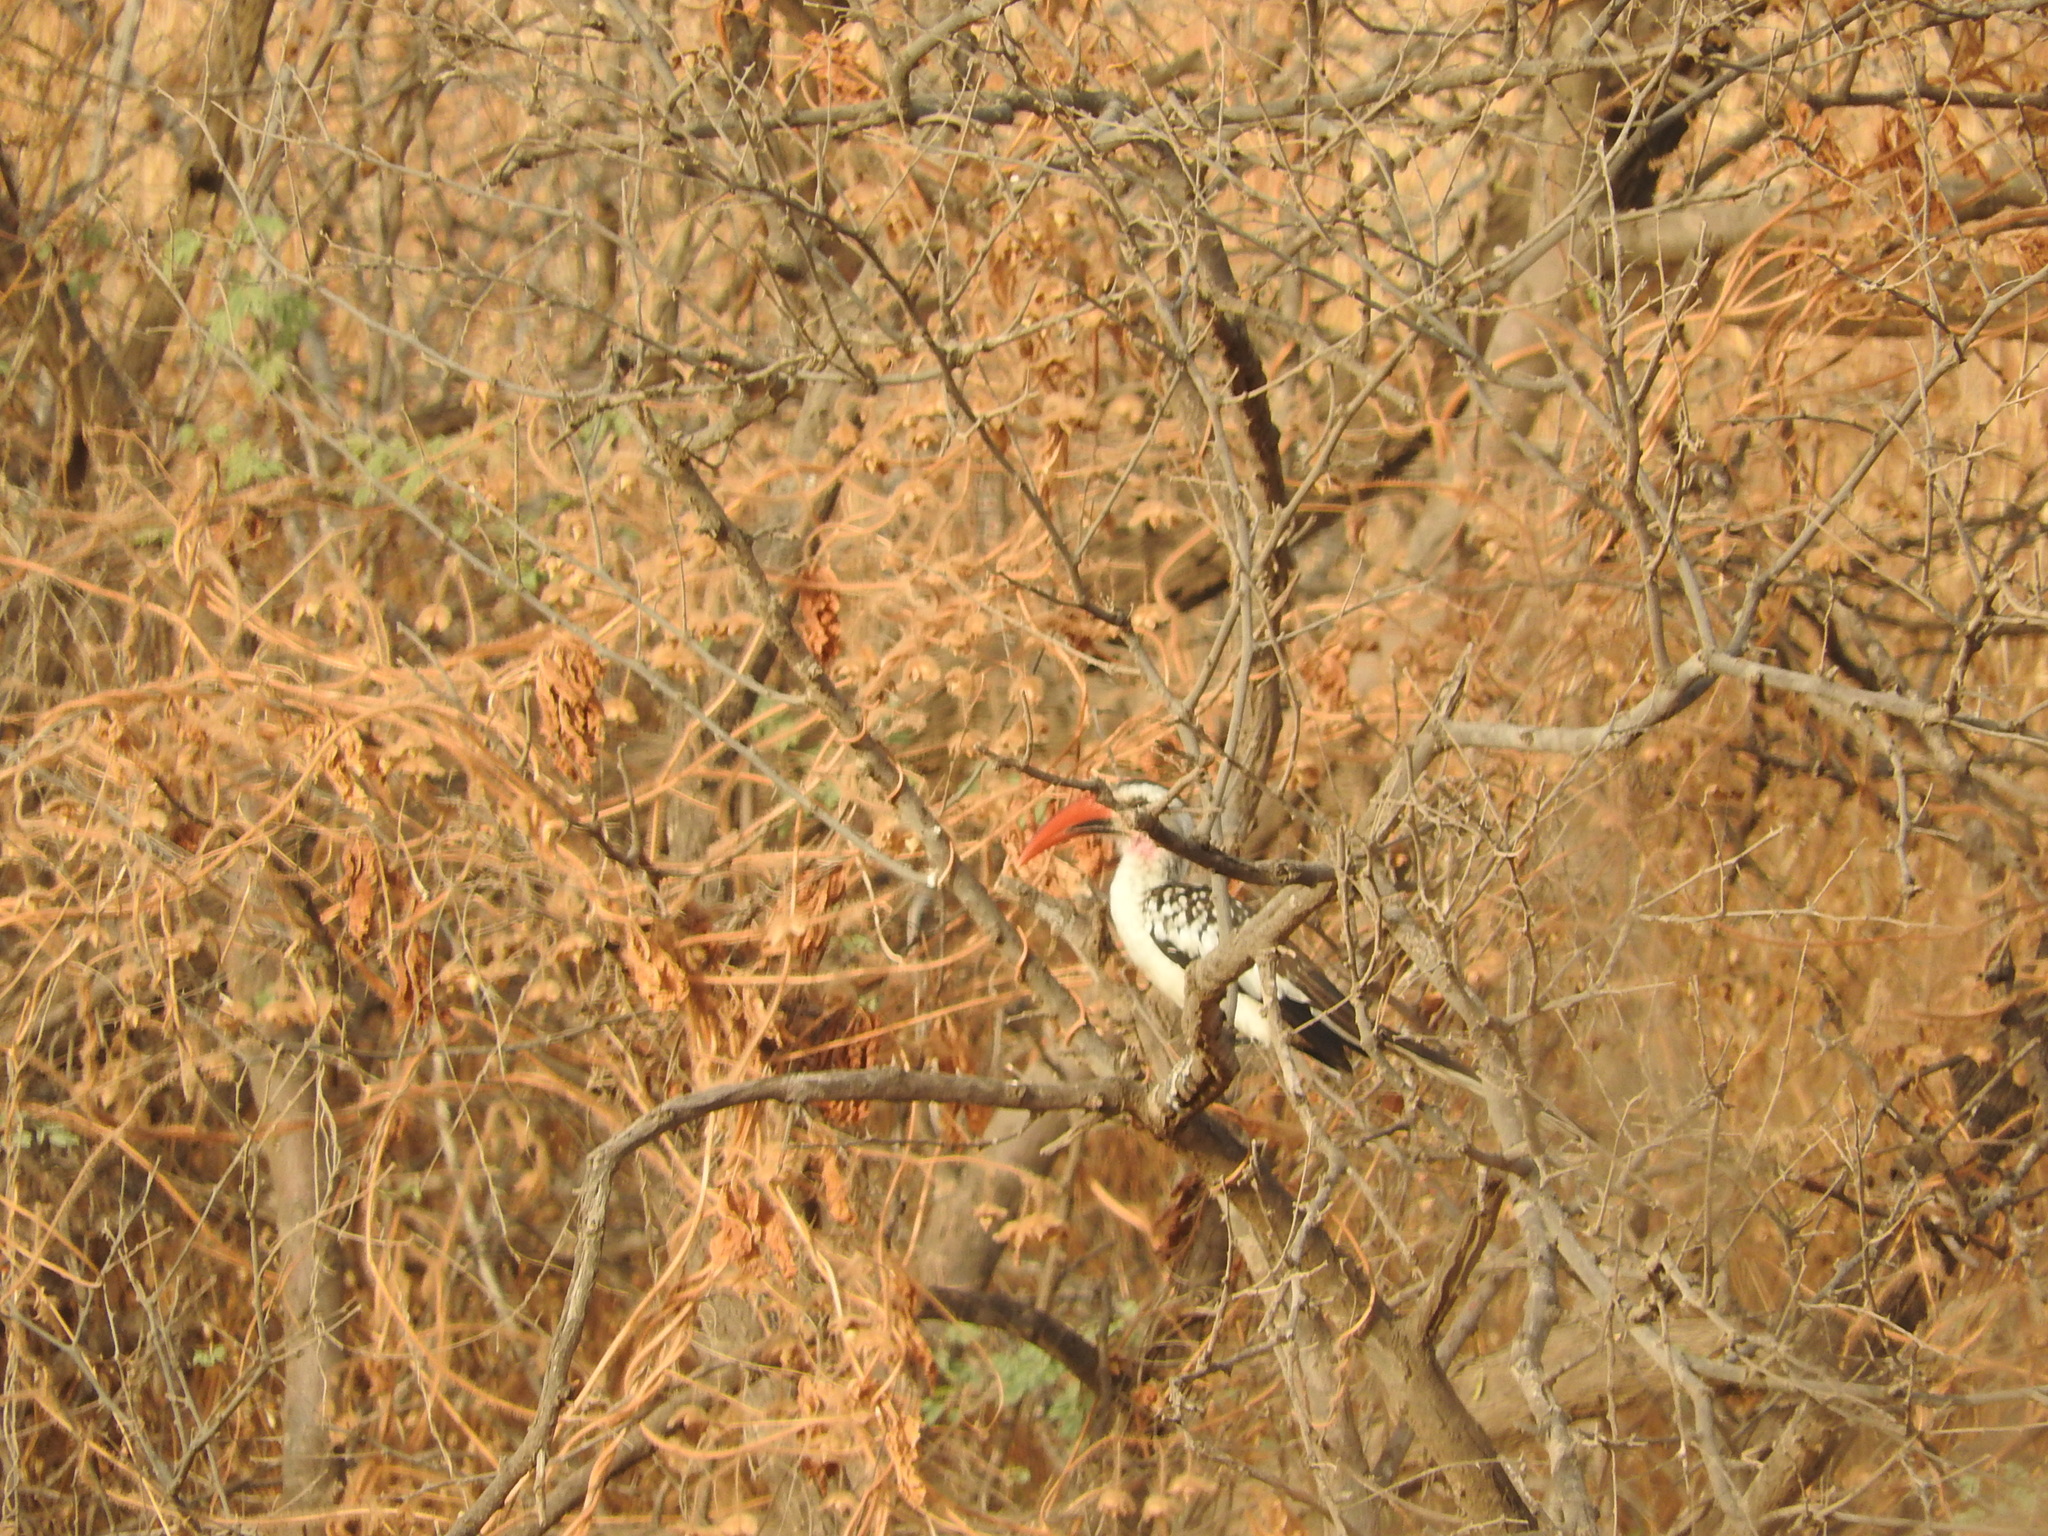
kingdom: Animalia
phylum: Chordata
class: Aves
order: Bucerotiformes
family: Bucerotidae
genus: Tockus
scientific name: Tockus kempi
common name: Western red-billed hornbill
